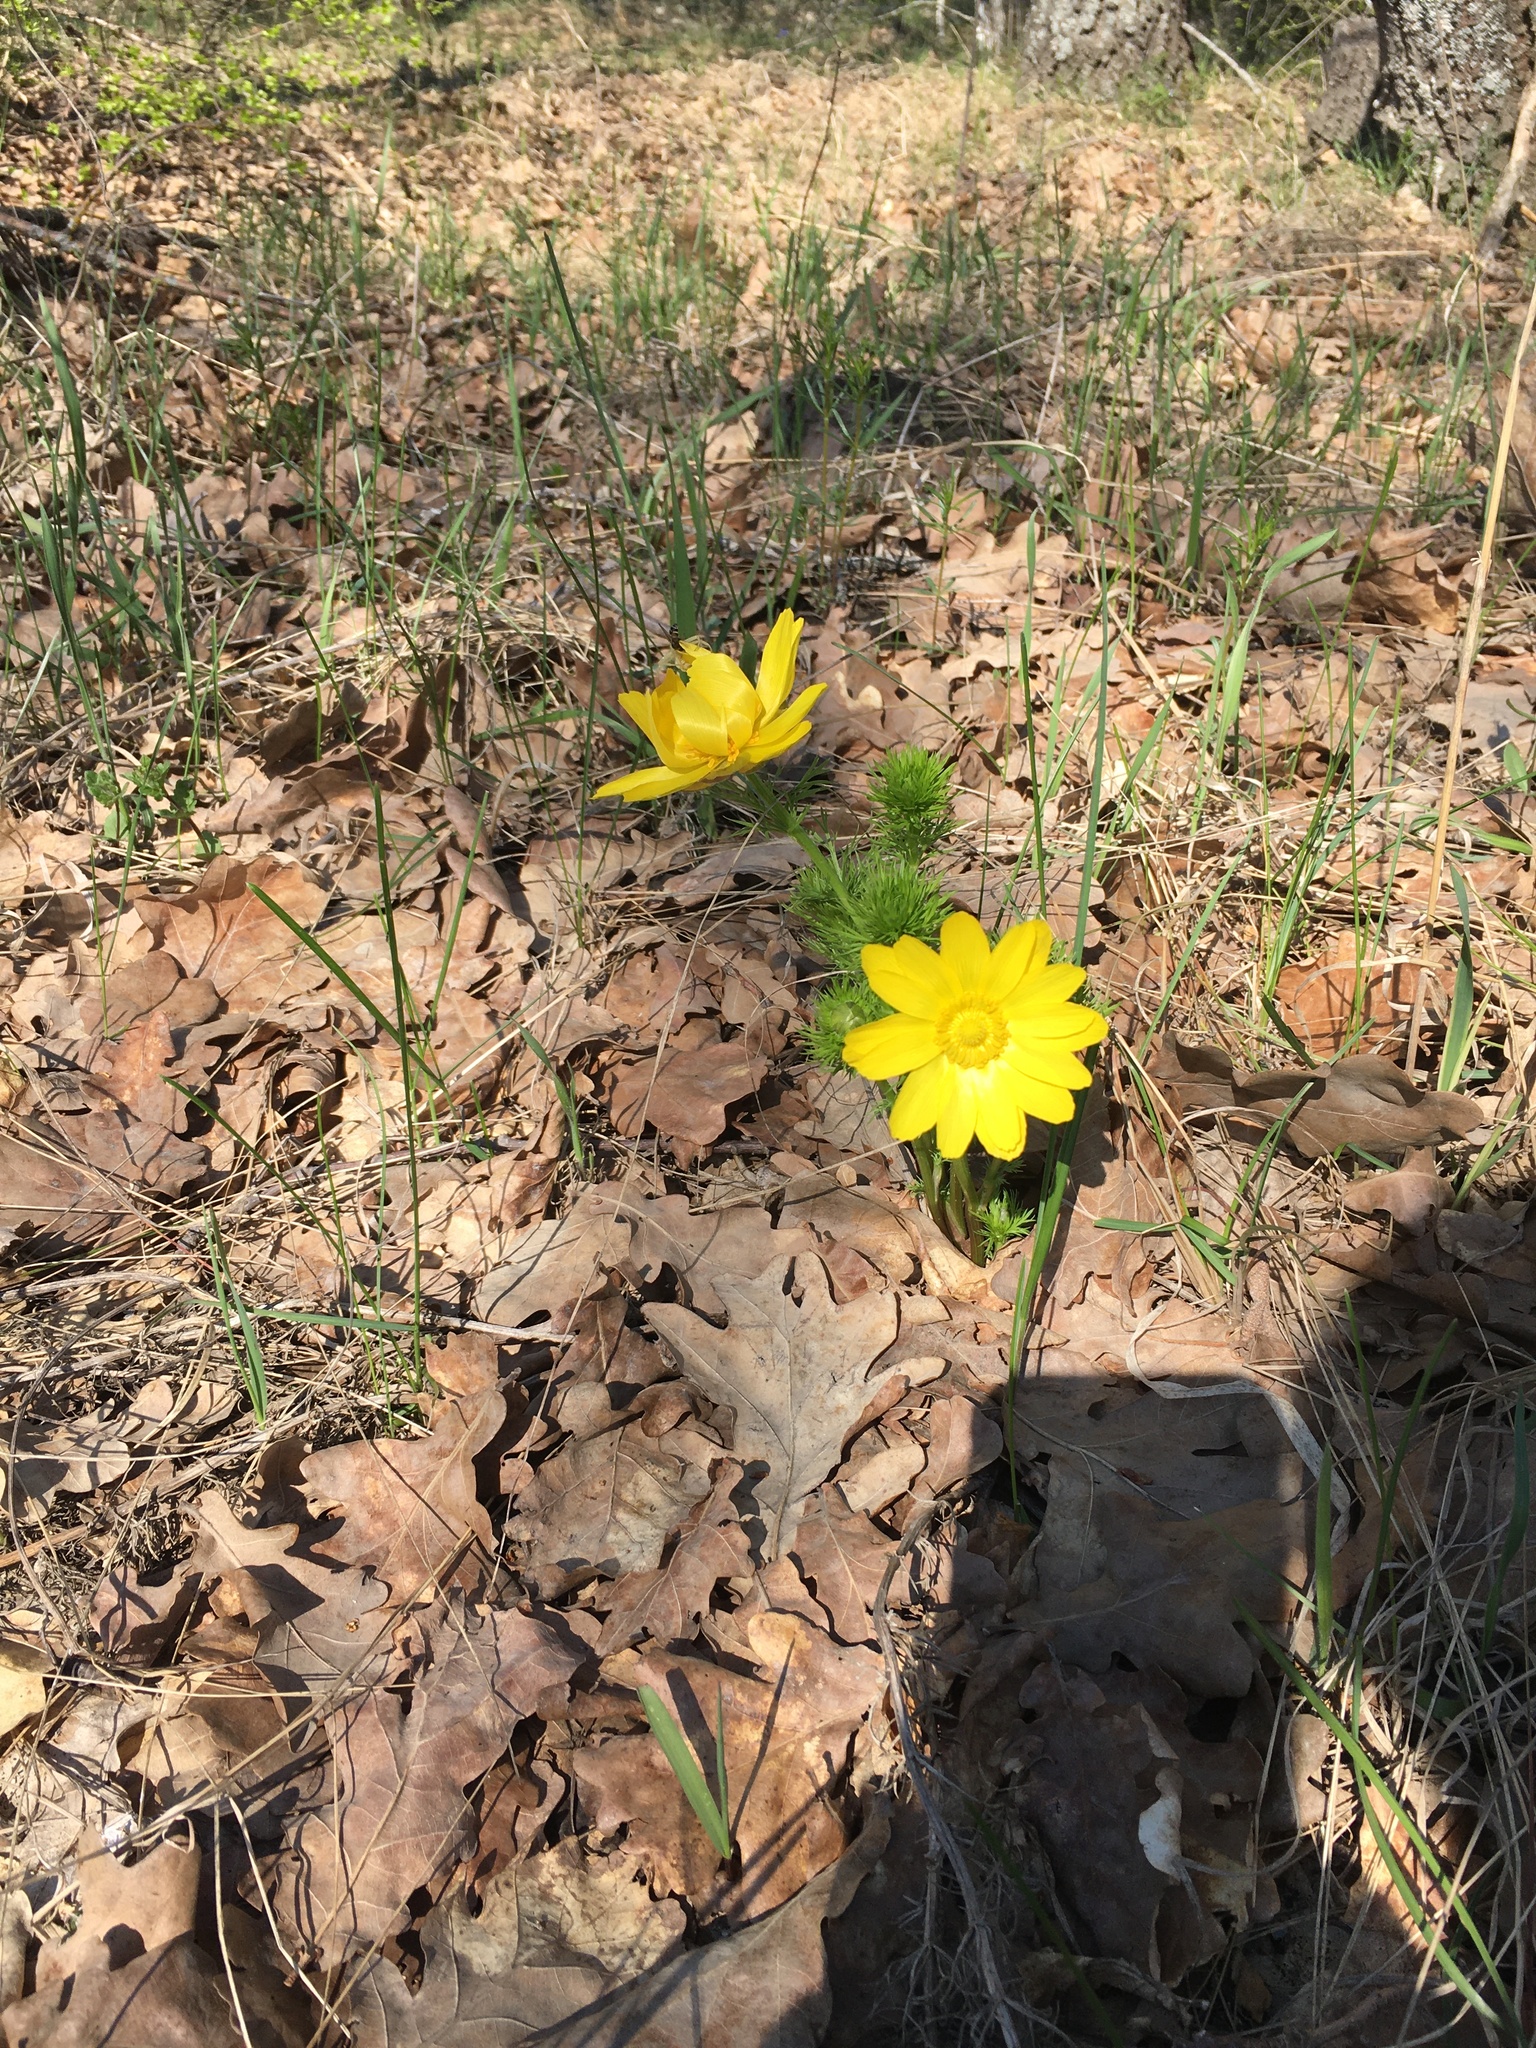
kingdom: Plantae
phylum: Tracheophyta
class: Magnoliopsida
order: Ranunculales
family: Ranunculaceae
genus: Adonis
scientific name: Adonis vernalis
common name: Yellow pheasants-eye
